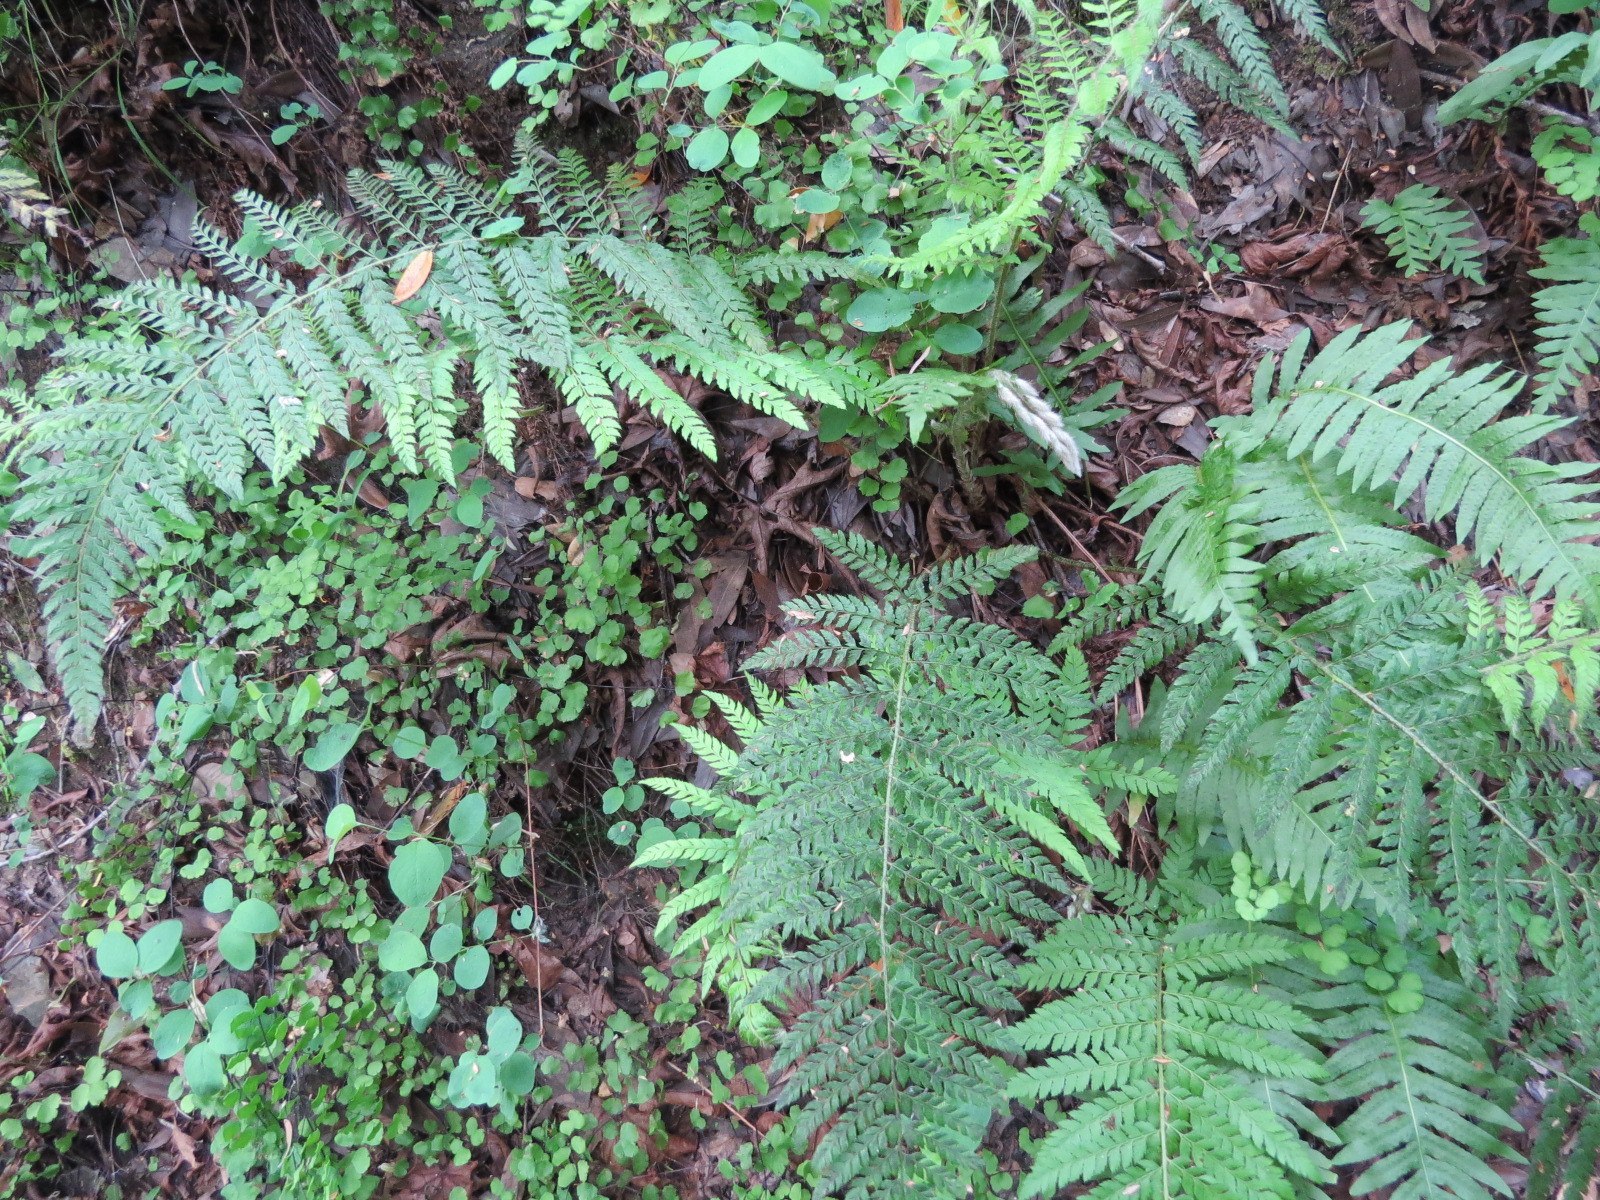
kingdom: Plantae
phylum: Tracheophyta
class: Polypodiopsida
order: Polypodiales
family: Dryopteridaceae
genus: Polystichum
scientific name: Polystichum dudleyi
